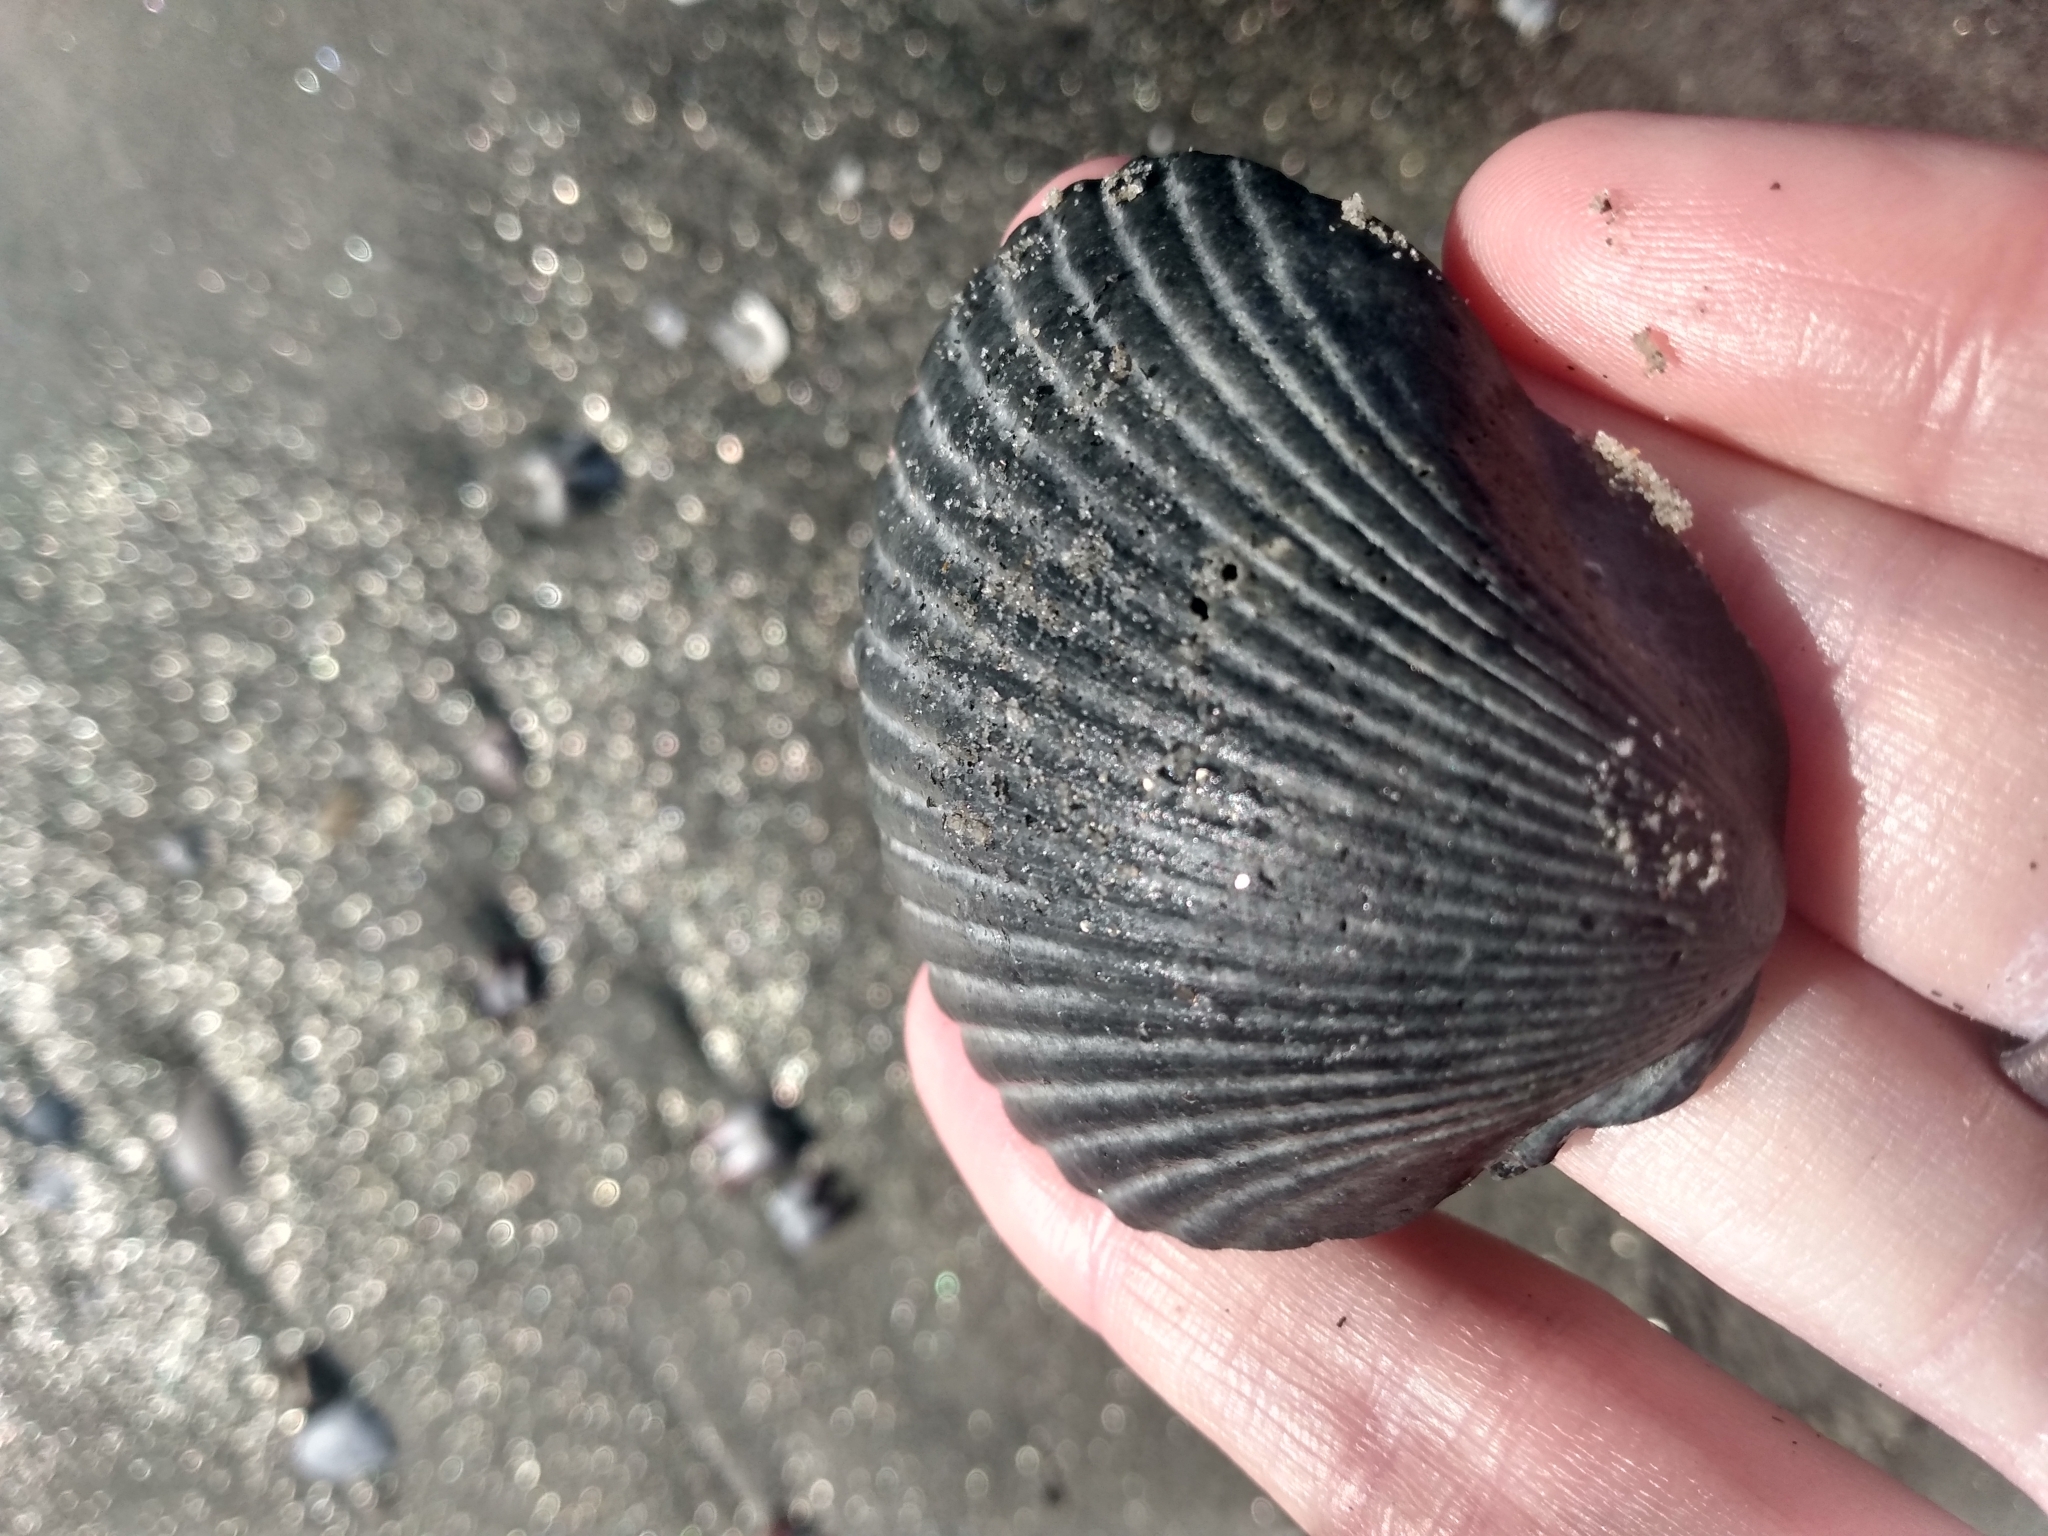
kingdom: Animalia
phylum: Mollusca
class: Bivalvia
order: Pectinida
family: Pectinidae
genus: Argopecten
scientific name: Argopecten ventricosus
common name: Catarina scallop
